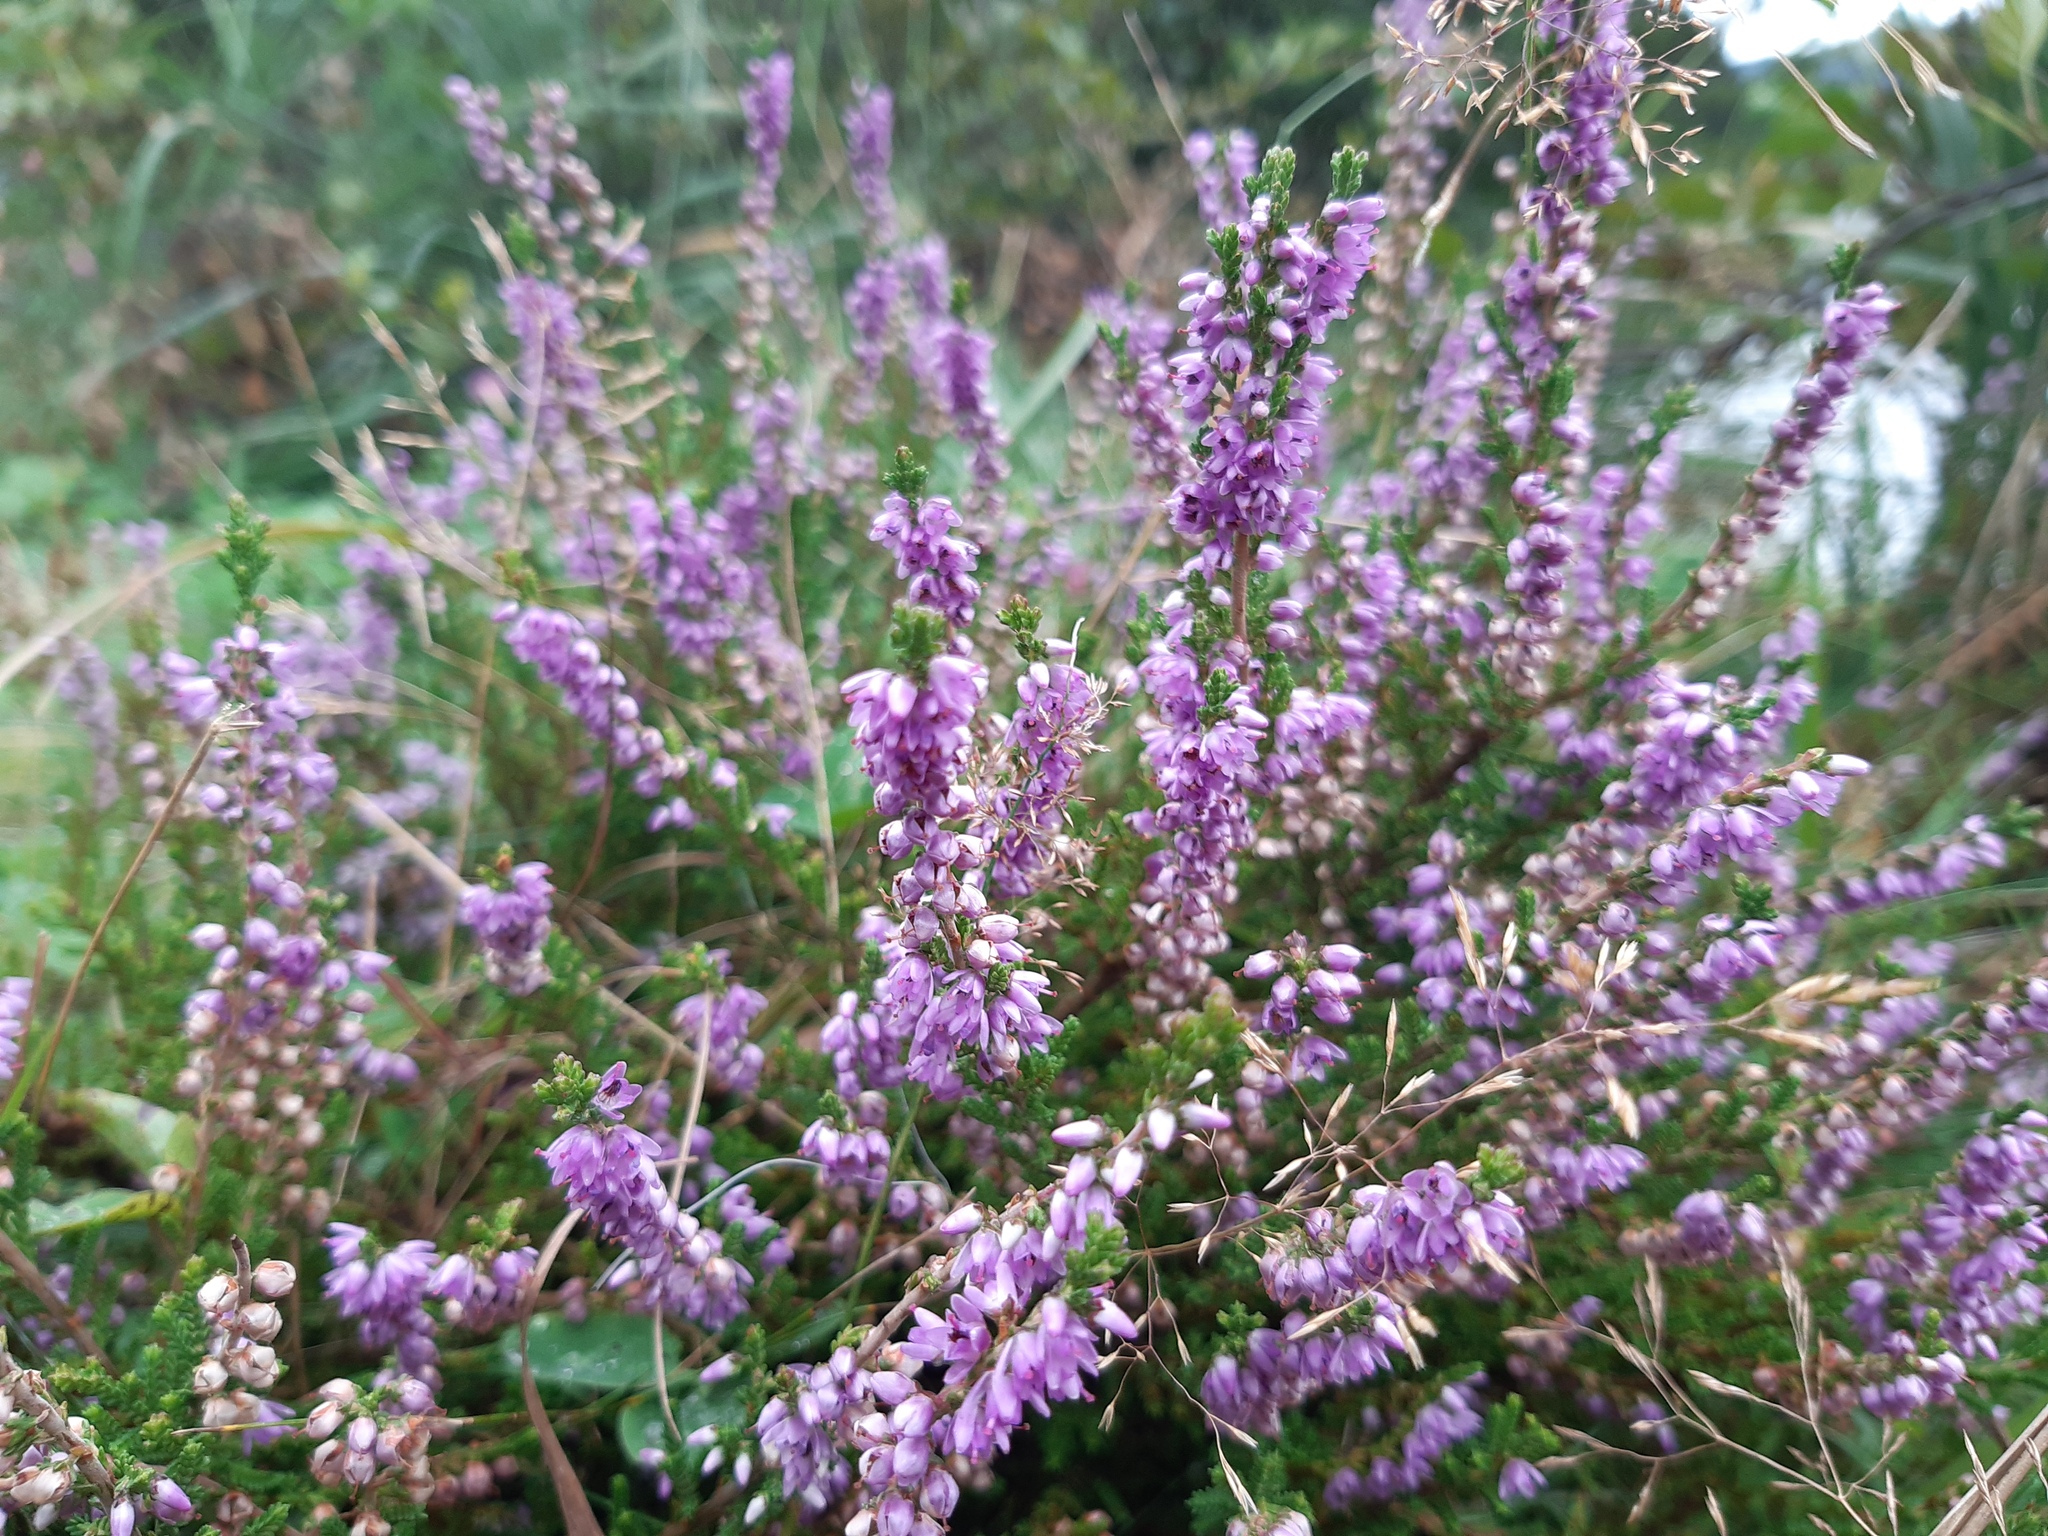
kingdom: Plantae
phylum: Tracheophyta
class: Magnoliopsida
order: Ericales
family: Ericaceae
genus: Calluna
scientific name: Calluna vulgaris
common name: Heather
